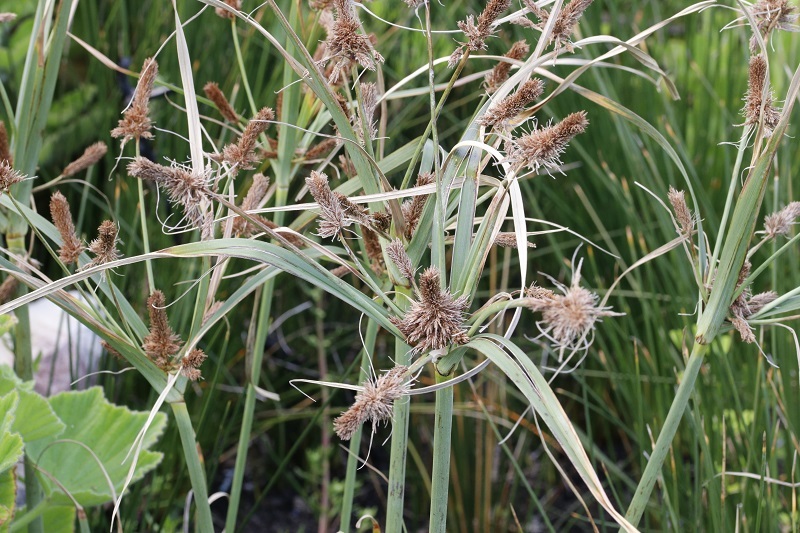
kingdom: Plantae
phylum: Tracheophyta
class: Liliopsida
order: Poales
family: Cyperaceae
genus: Cyperus
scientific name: Cyperus thunbergii
